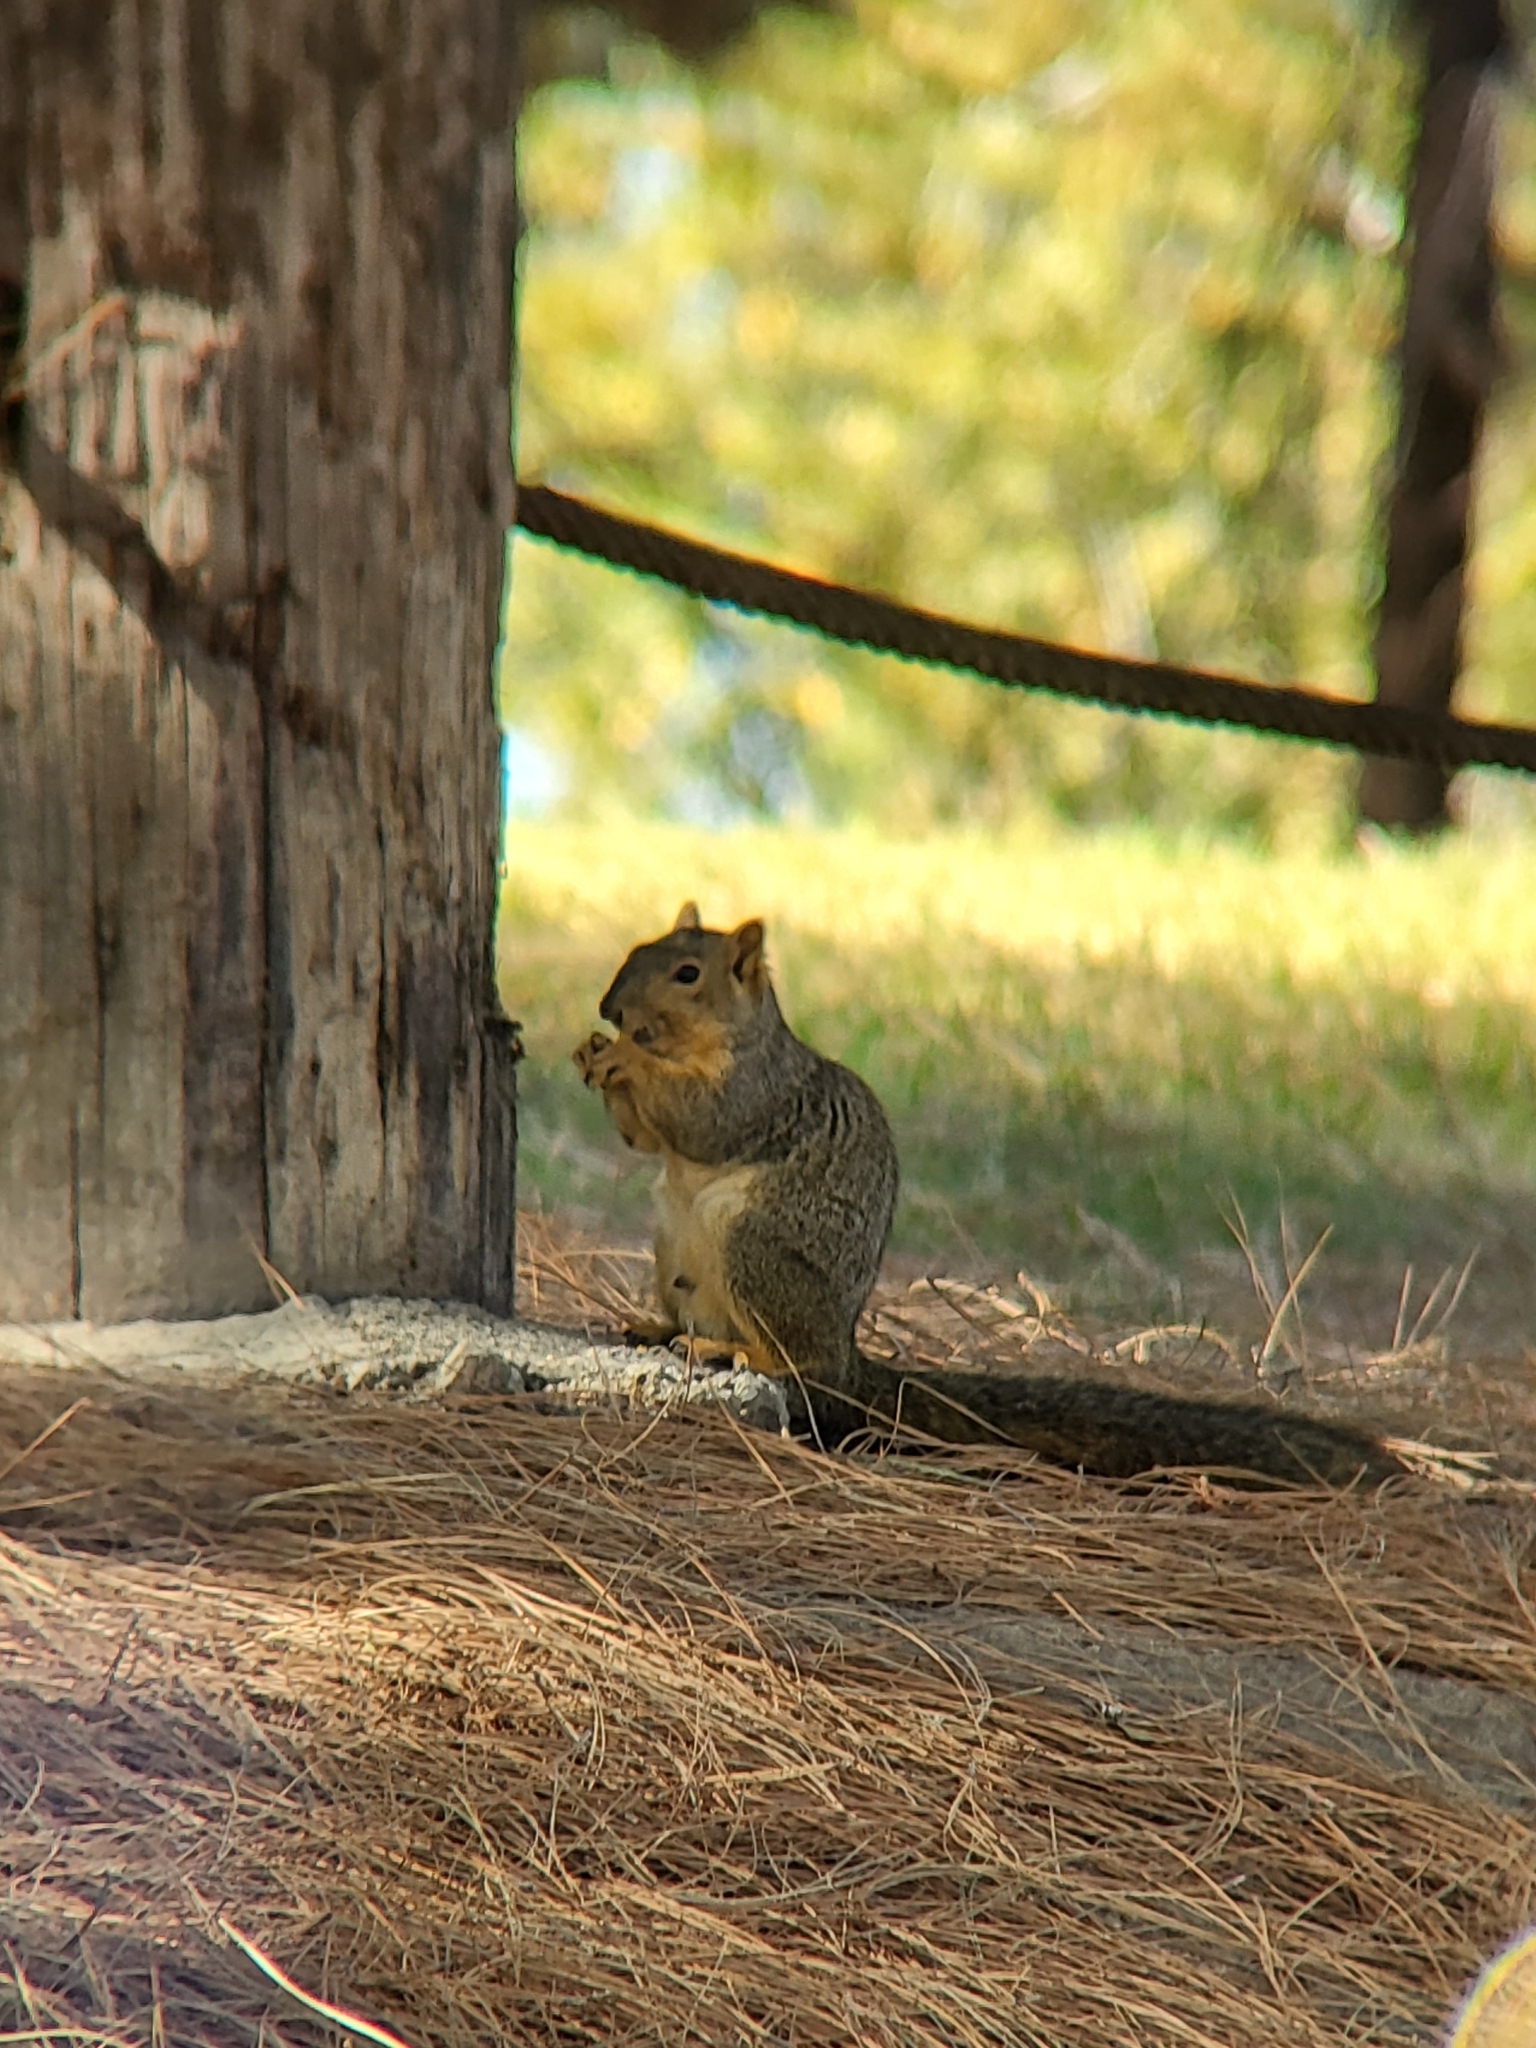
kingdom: Animalia
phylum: Chordata
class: Mammalia
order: Rodentia
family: Sciuridae
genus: Sciurus
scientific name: Sciurus niger
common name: Fox squirrel
